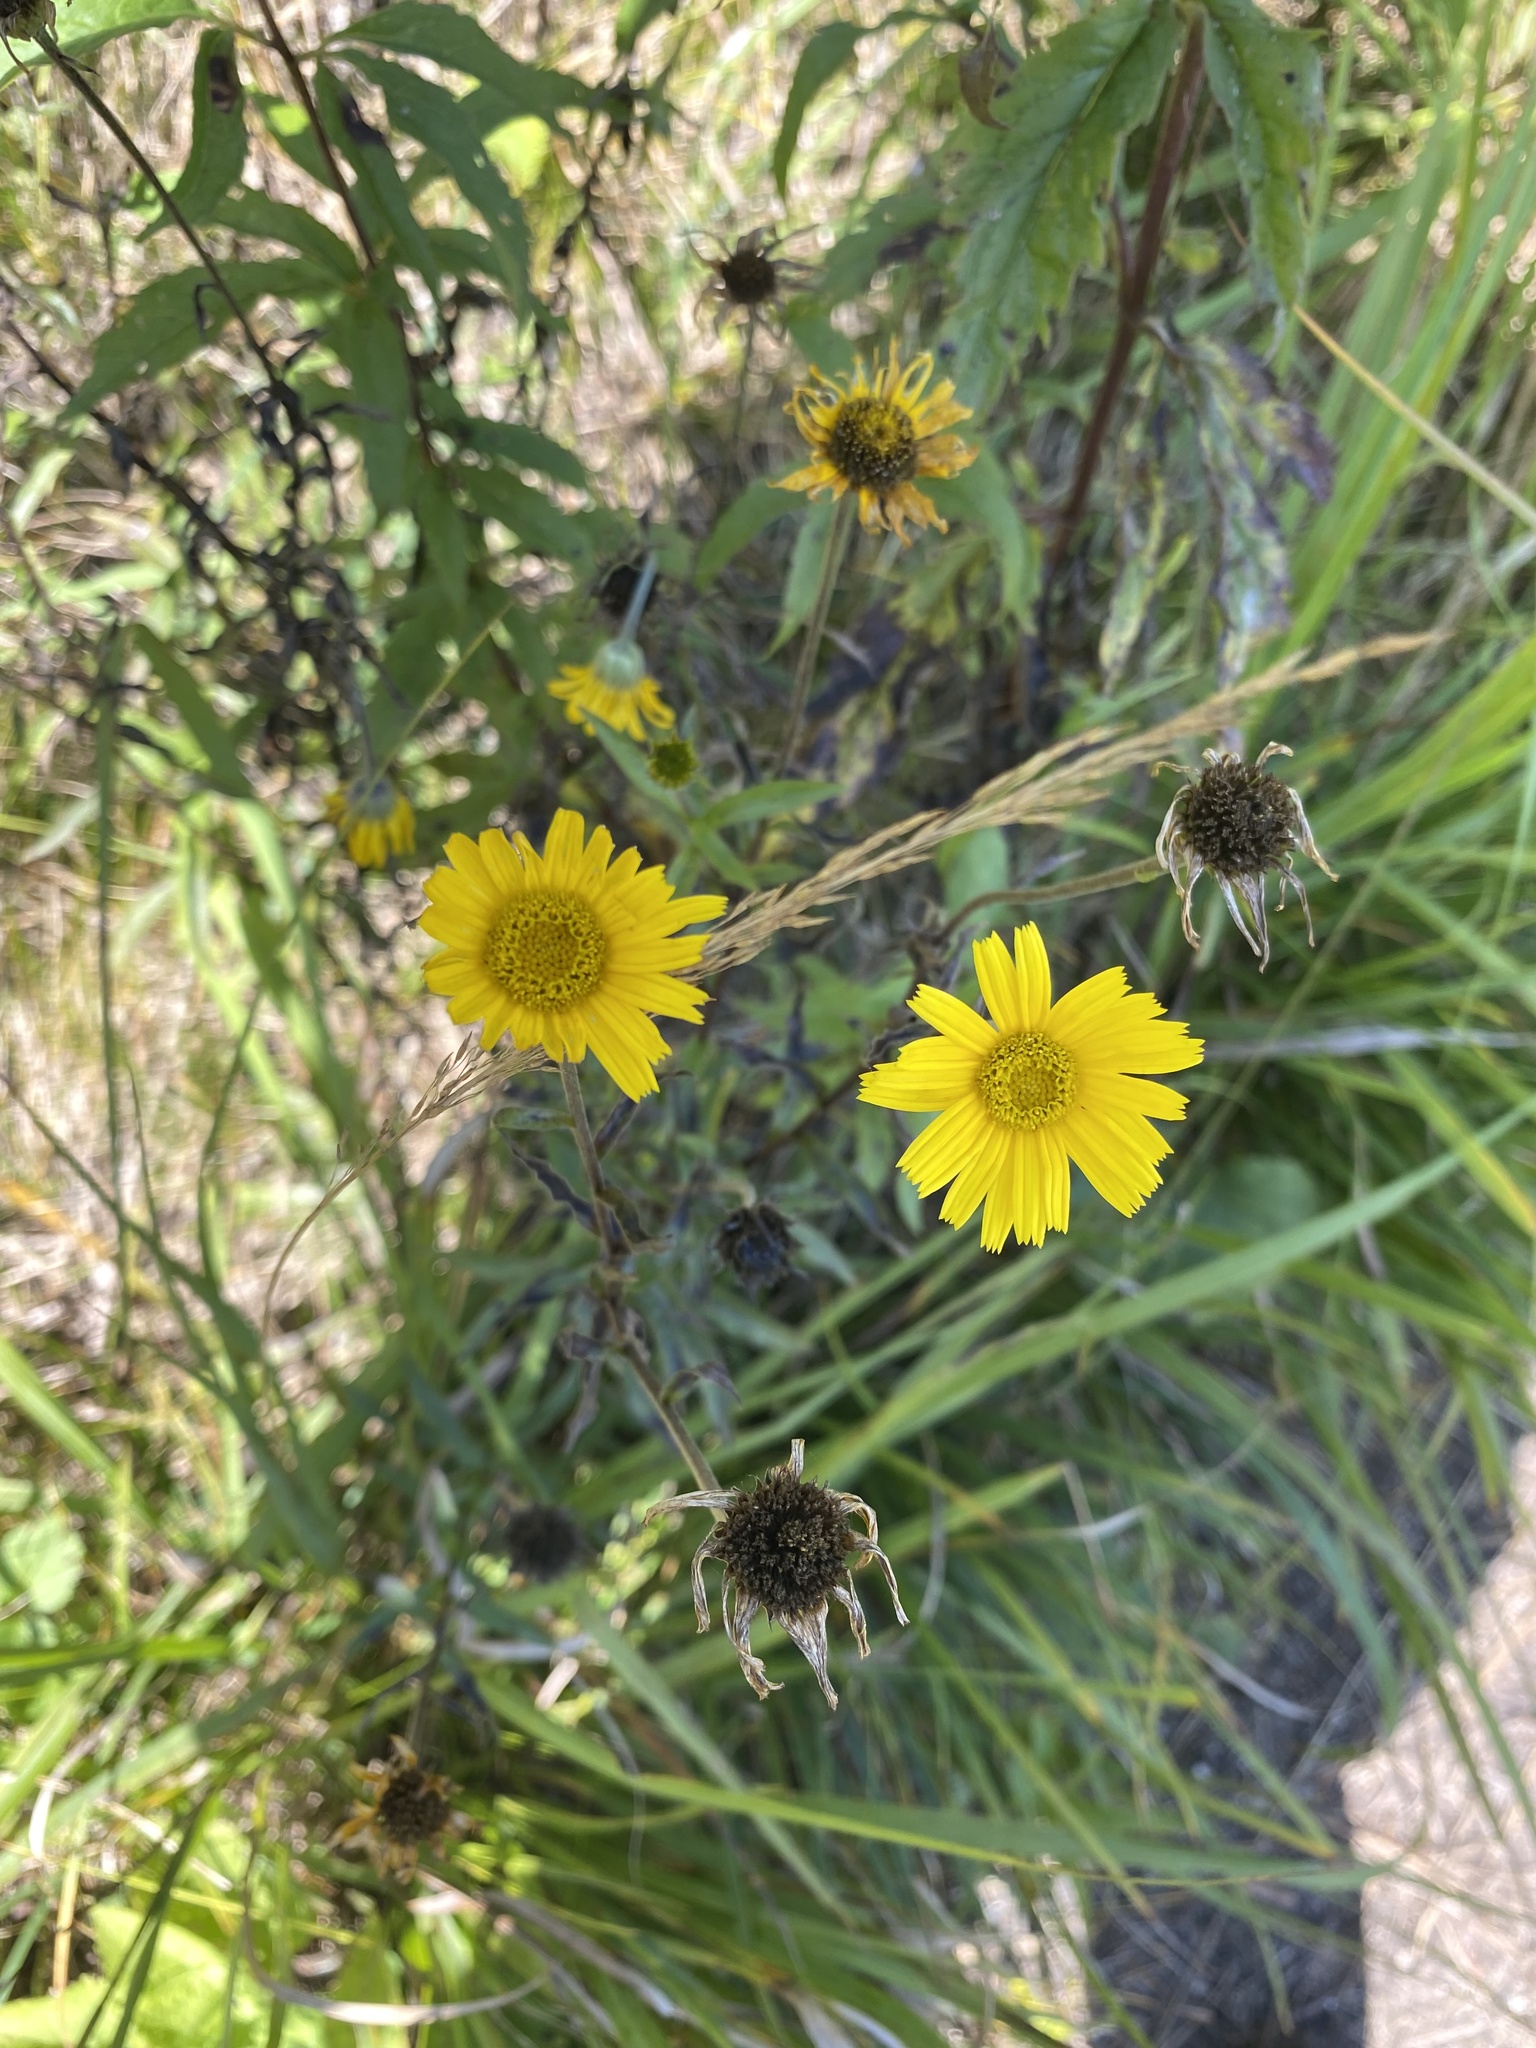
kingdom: Plantae
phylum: Tracheophyta
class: Magnoliopsida
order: Asterales
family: Asteraceae
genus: Buphthalmum
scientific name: Buphthalmum salicifolium
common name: Willow-leaved yellow-oxeye
